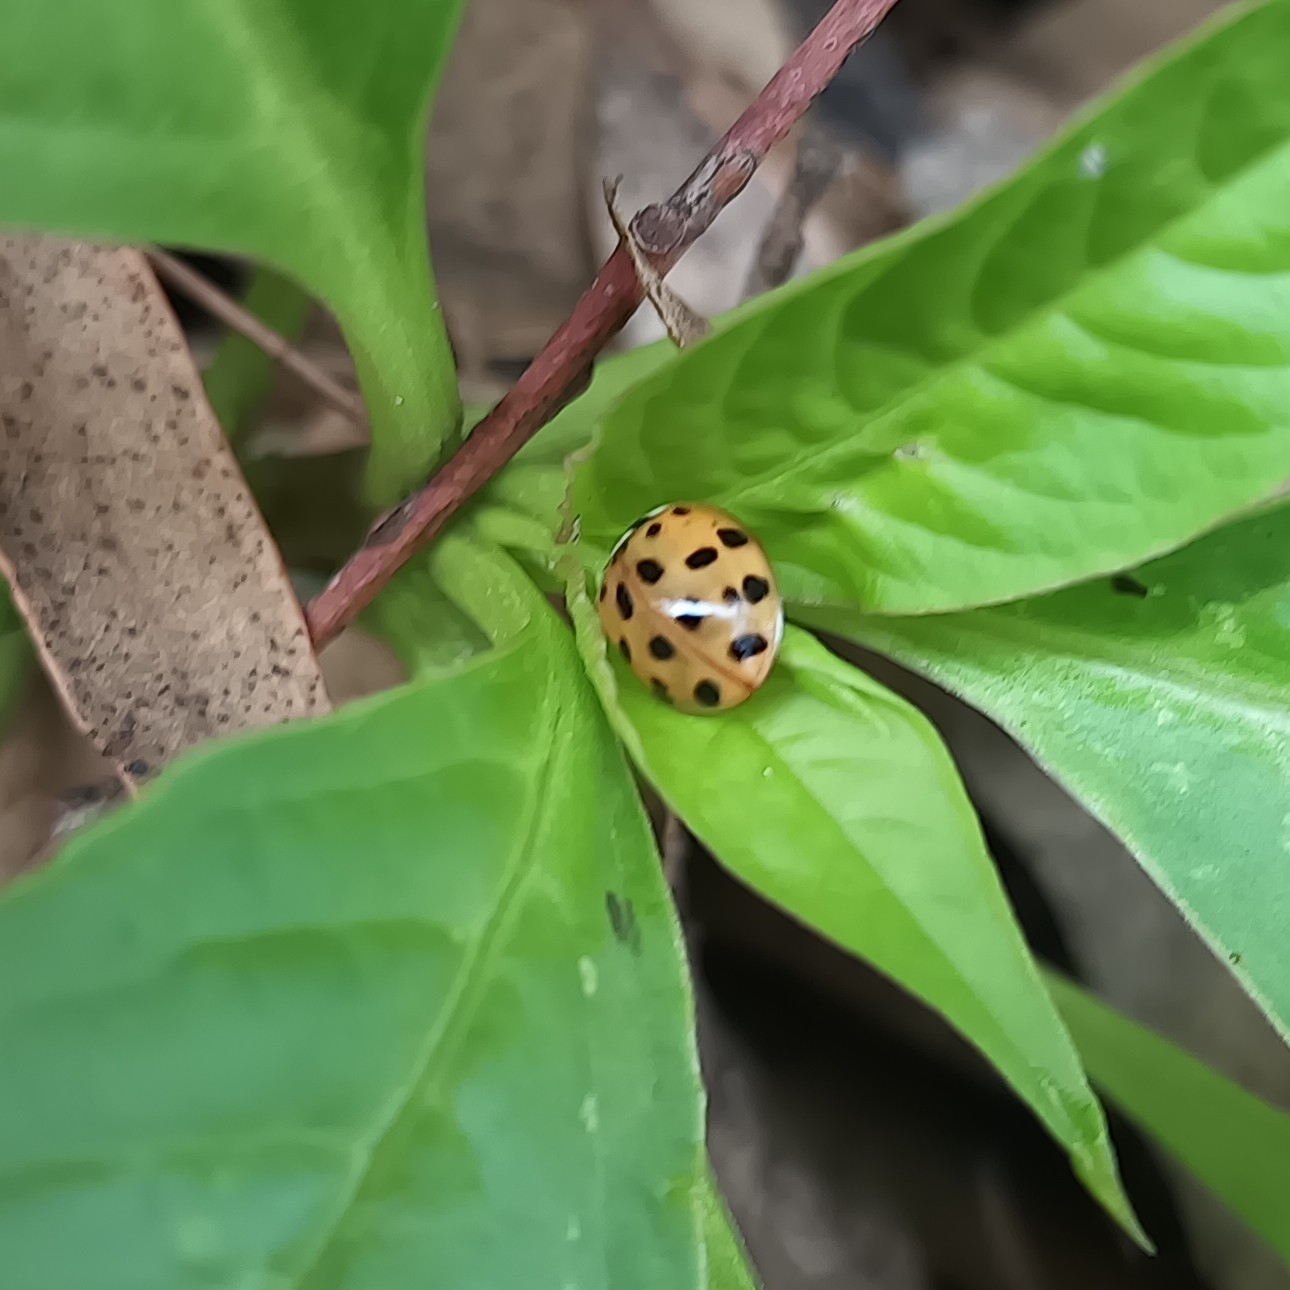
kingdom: Animalia
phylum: Arthropoda
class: Insecta
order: Coleoptera
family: Coccinellidae
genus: Harmonia
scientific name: Harmonia axyridis
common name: Harlequin ladybird
